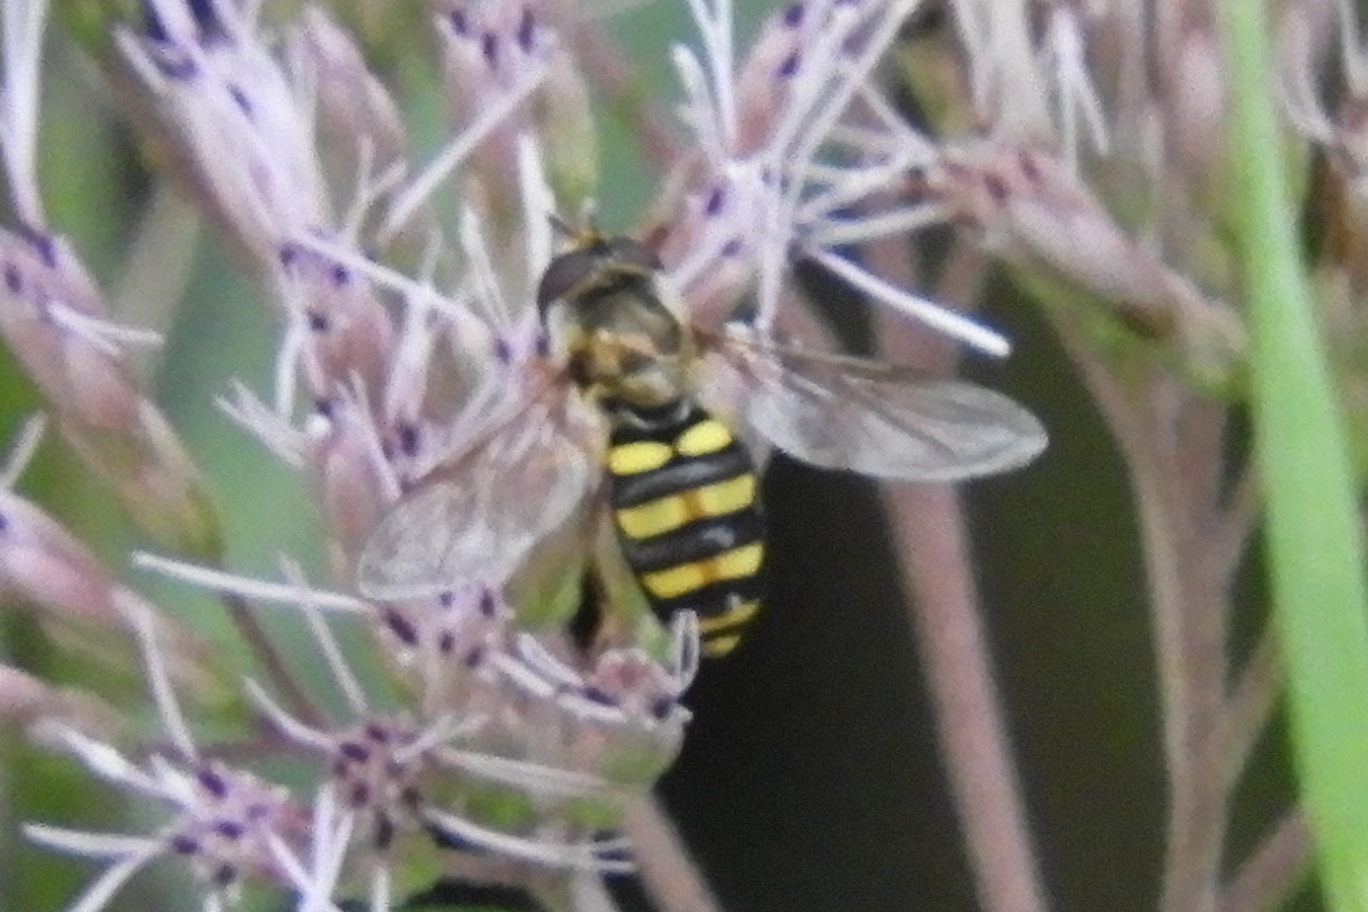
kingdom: Animalia
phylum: Arthropoda
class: Insecta
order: Diptera
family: Syrphidae
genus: Eupeodes
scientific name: Eupeodes
